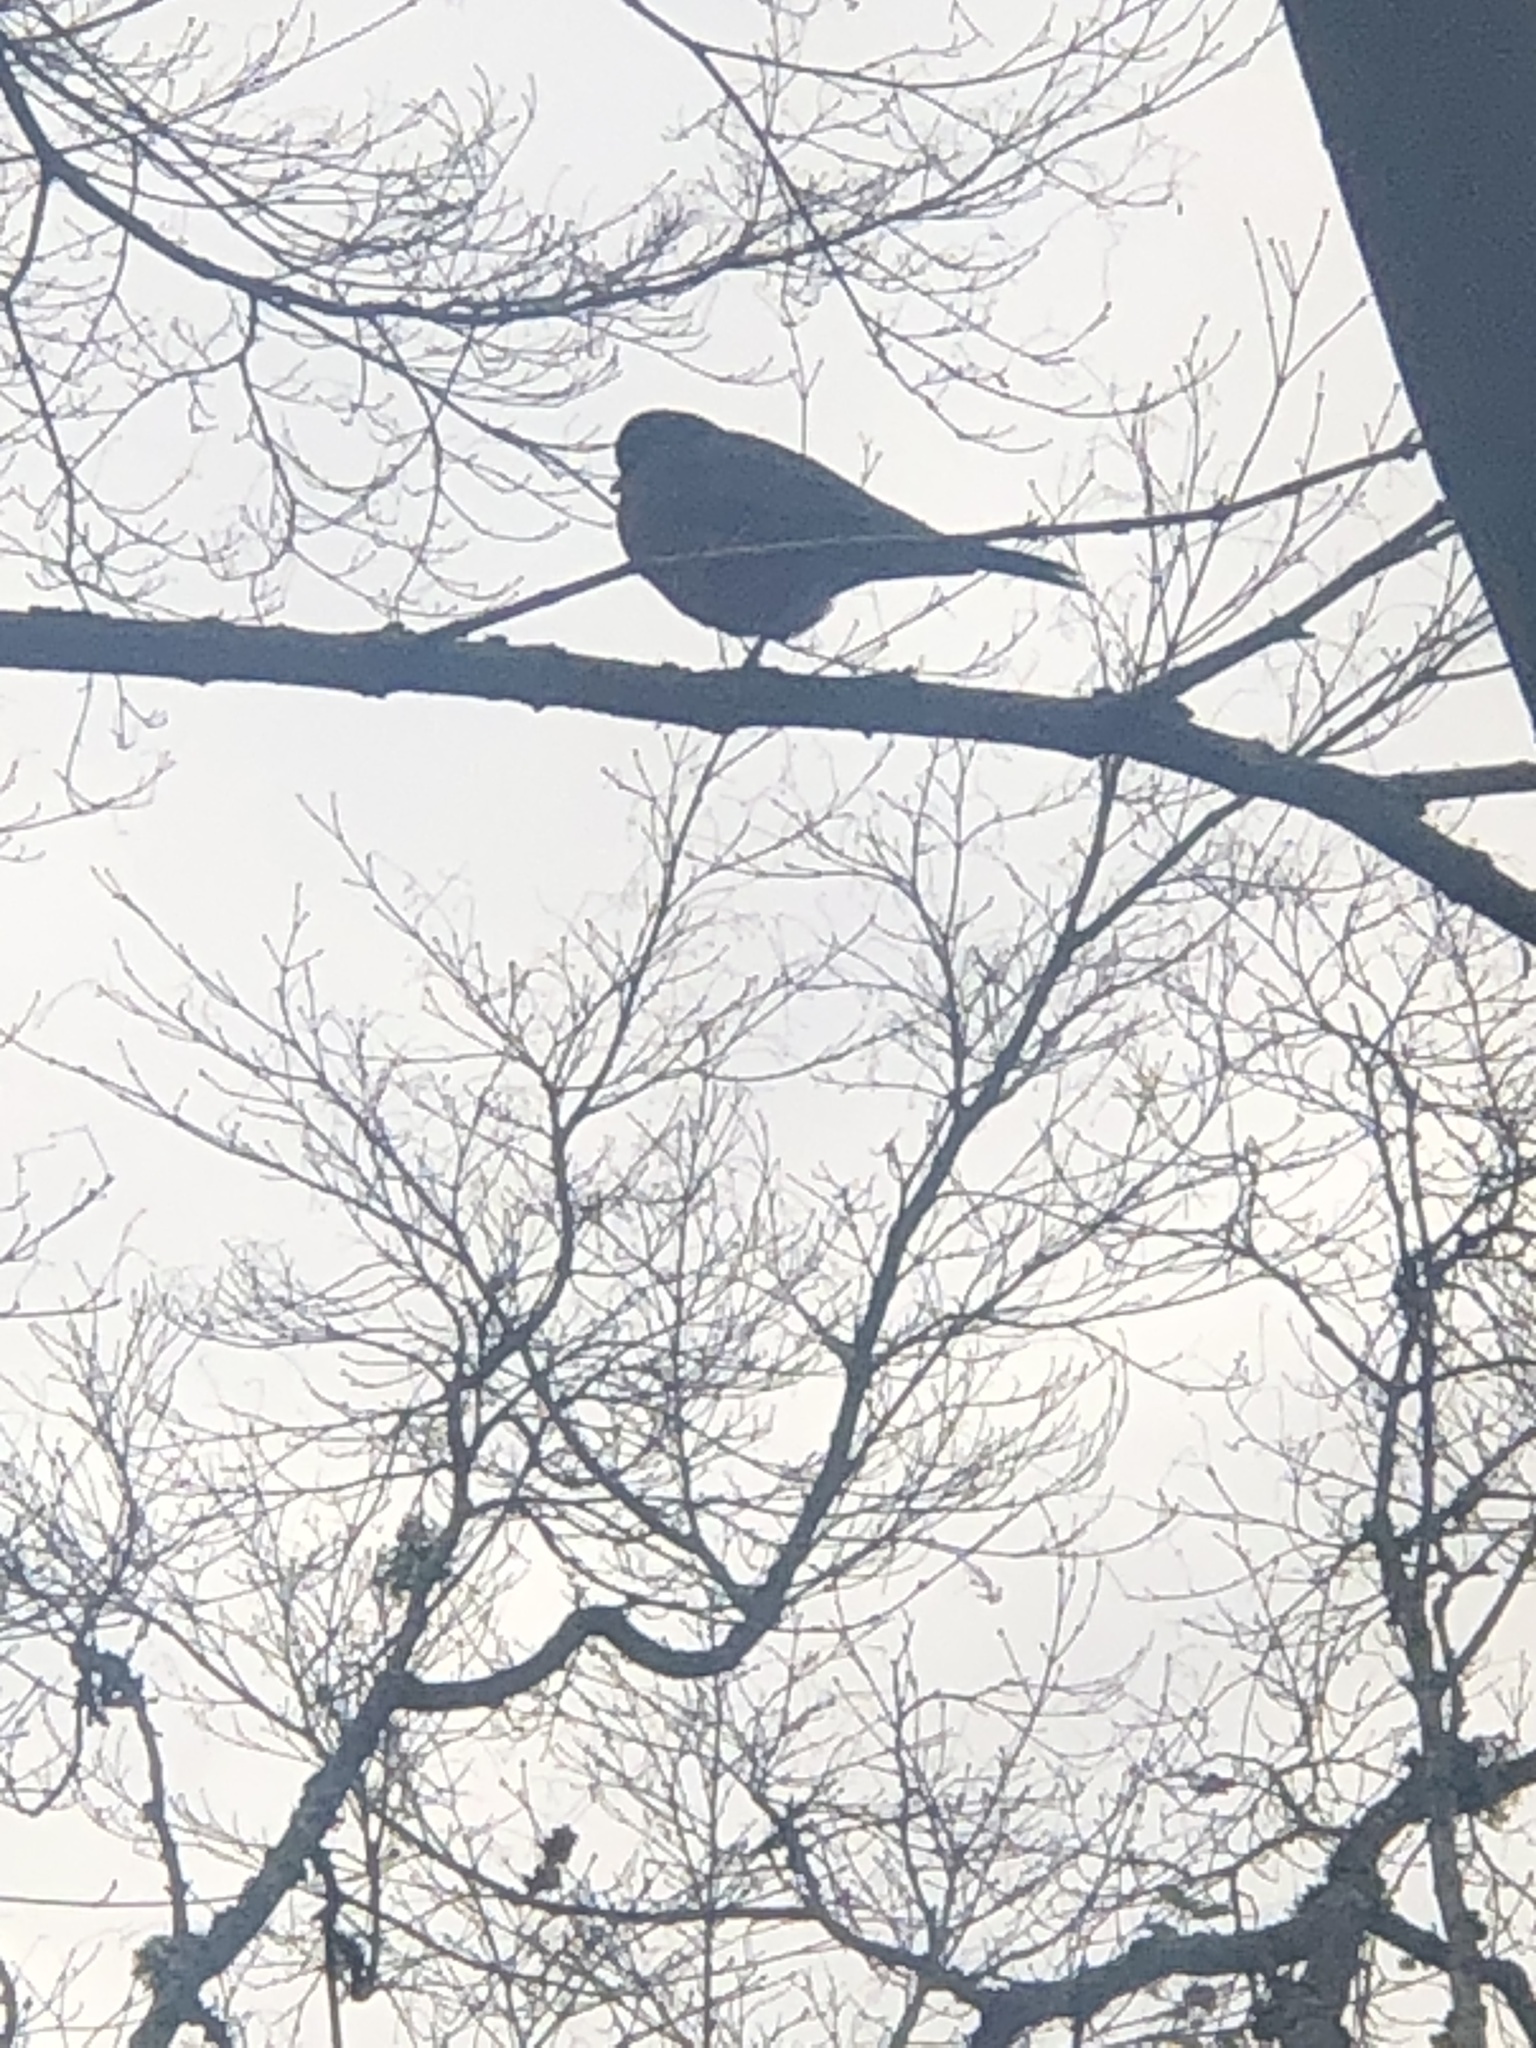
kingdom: Animalia
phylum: Chordata
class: Aves
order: Passeriformes
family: Turdidae
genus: Turdus
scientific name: Turdus migratorius
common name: American robin
